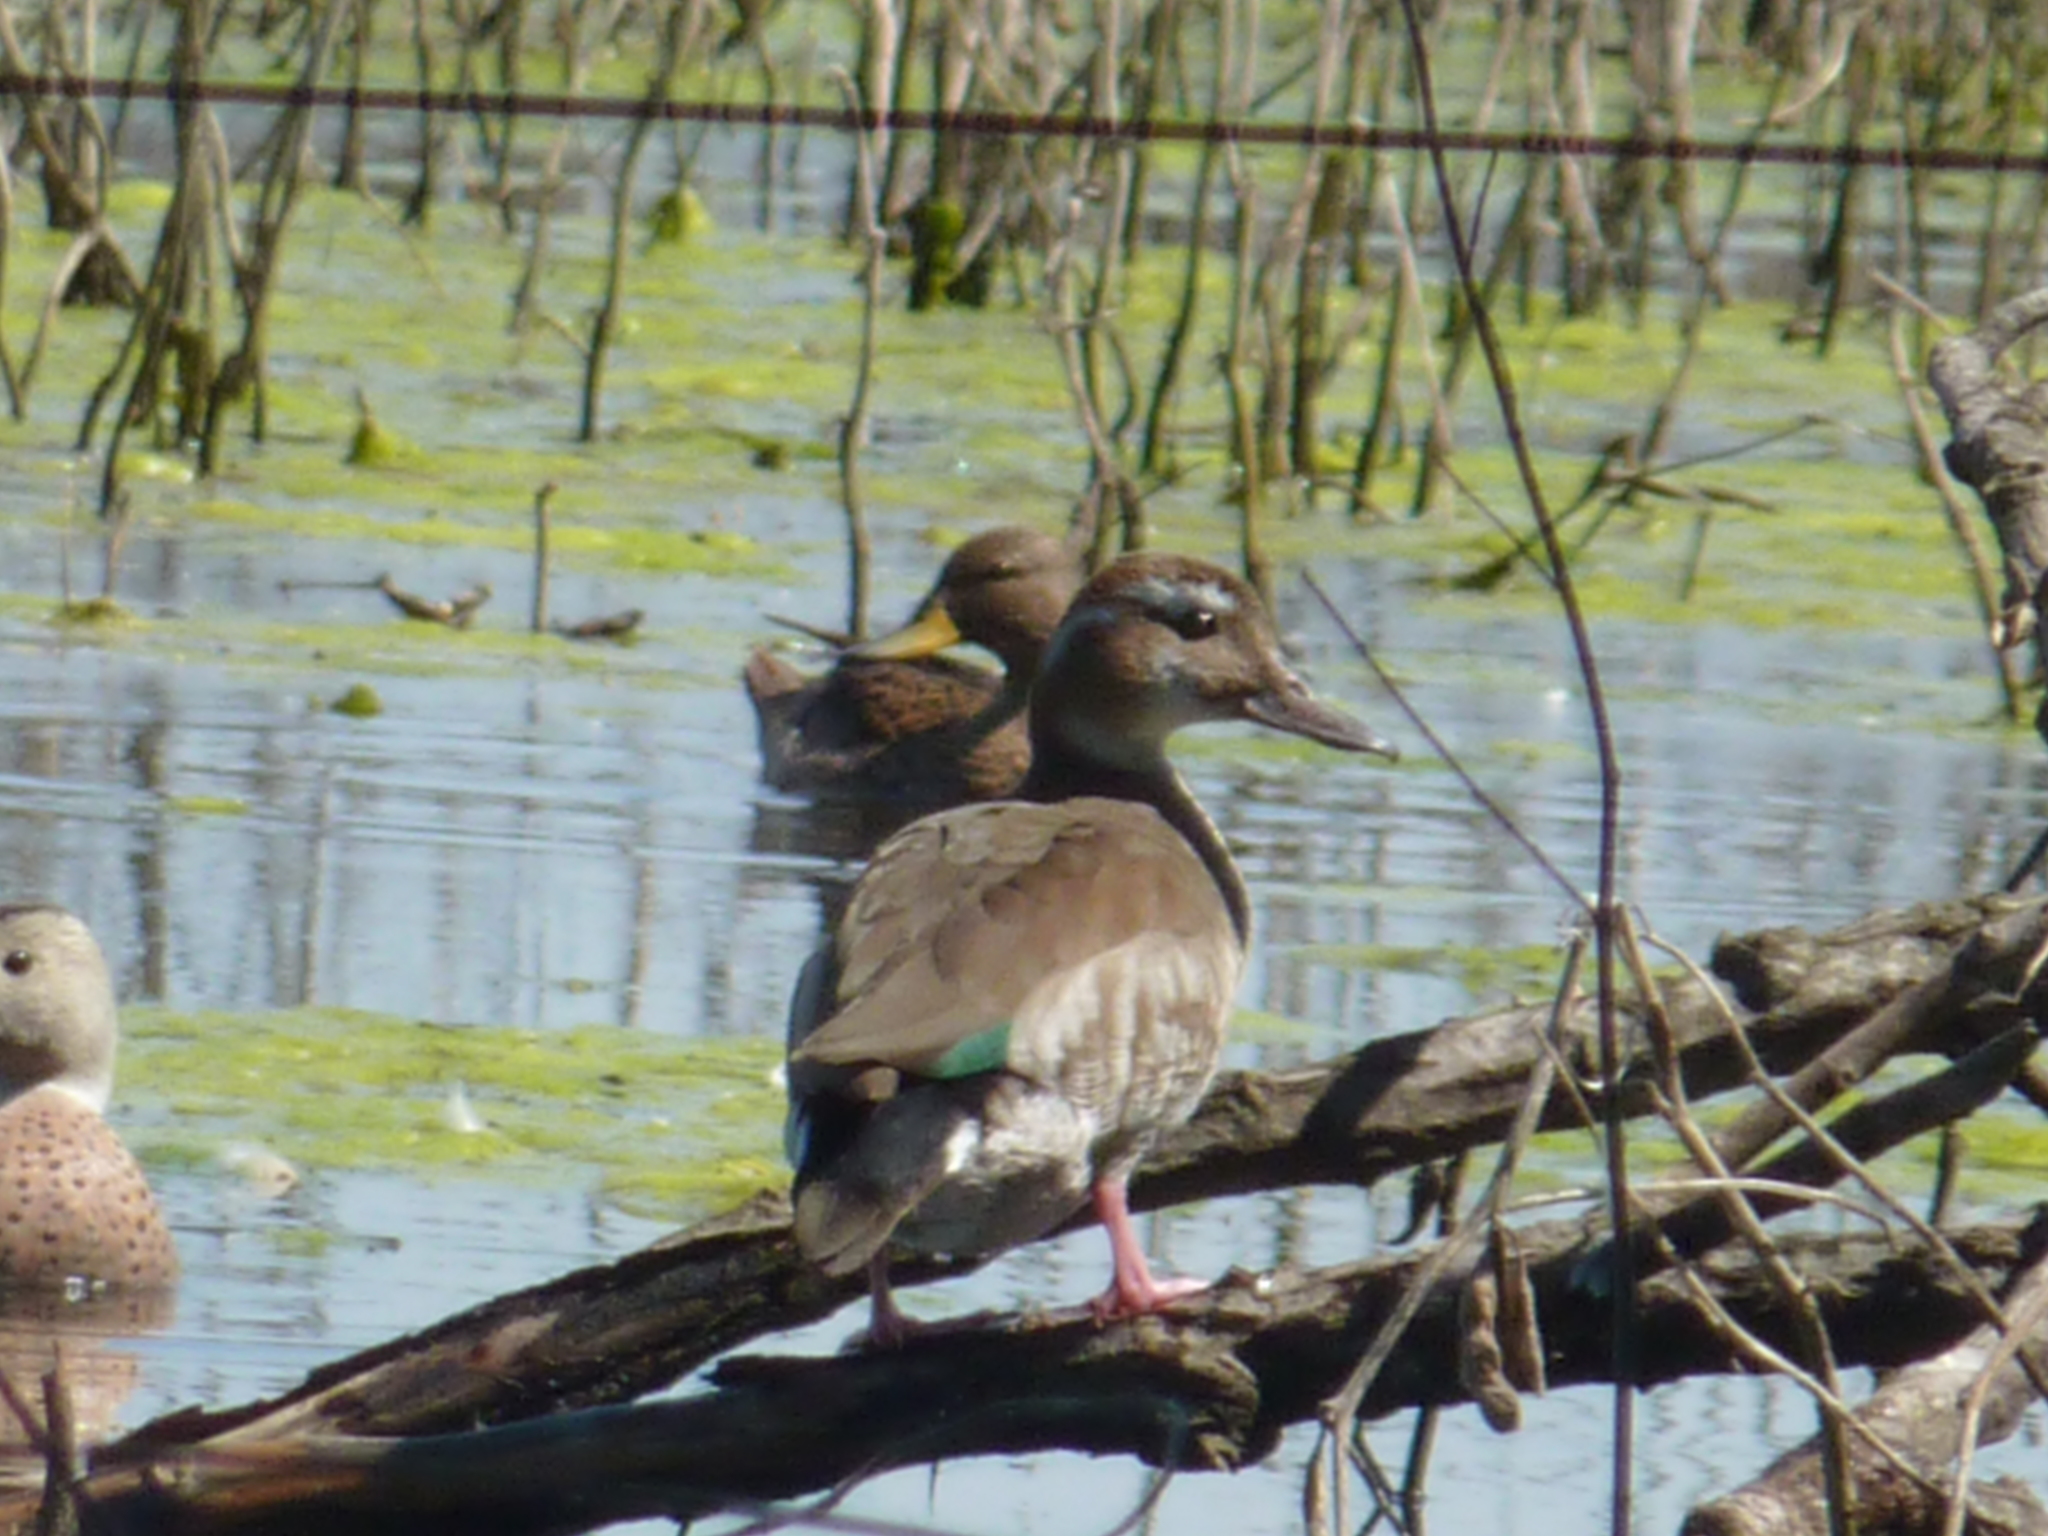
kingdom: Animalia
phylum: Chordata
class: Aves
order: Anseriformes
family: Anatidae
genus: Callonetta
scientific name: Callonetta leucophrys
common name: Ringed teal
